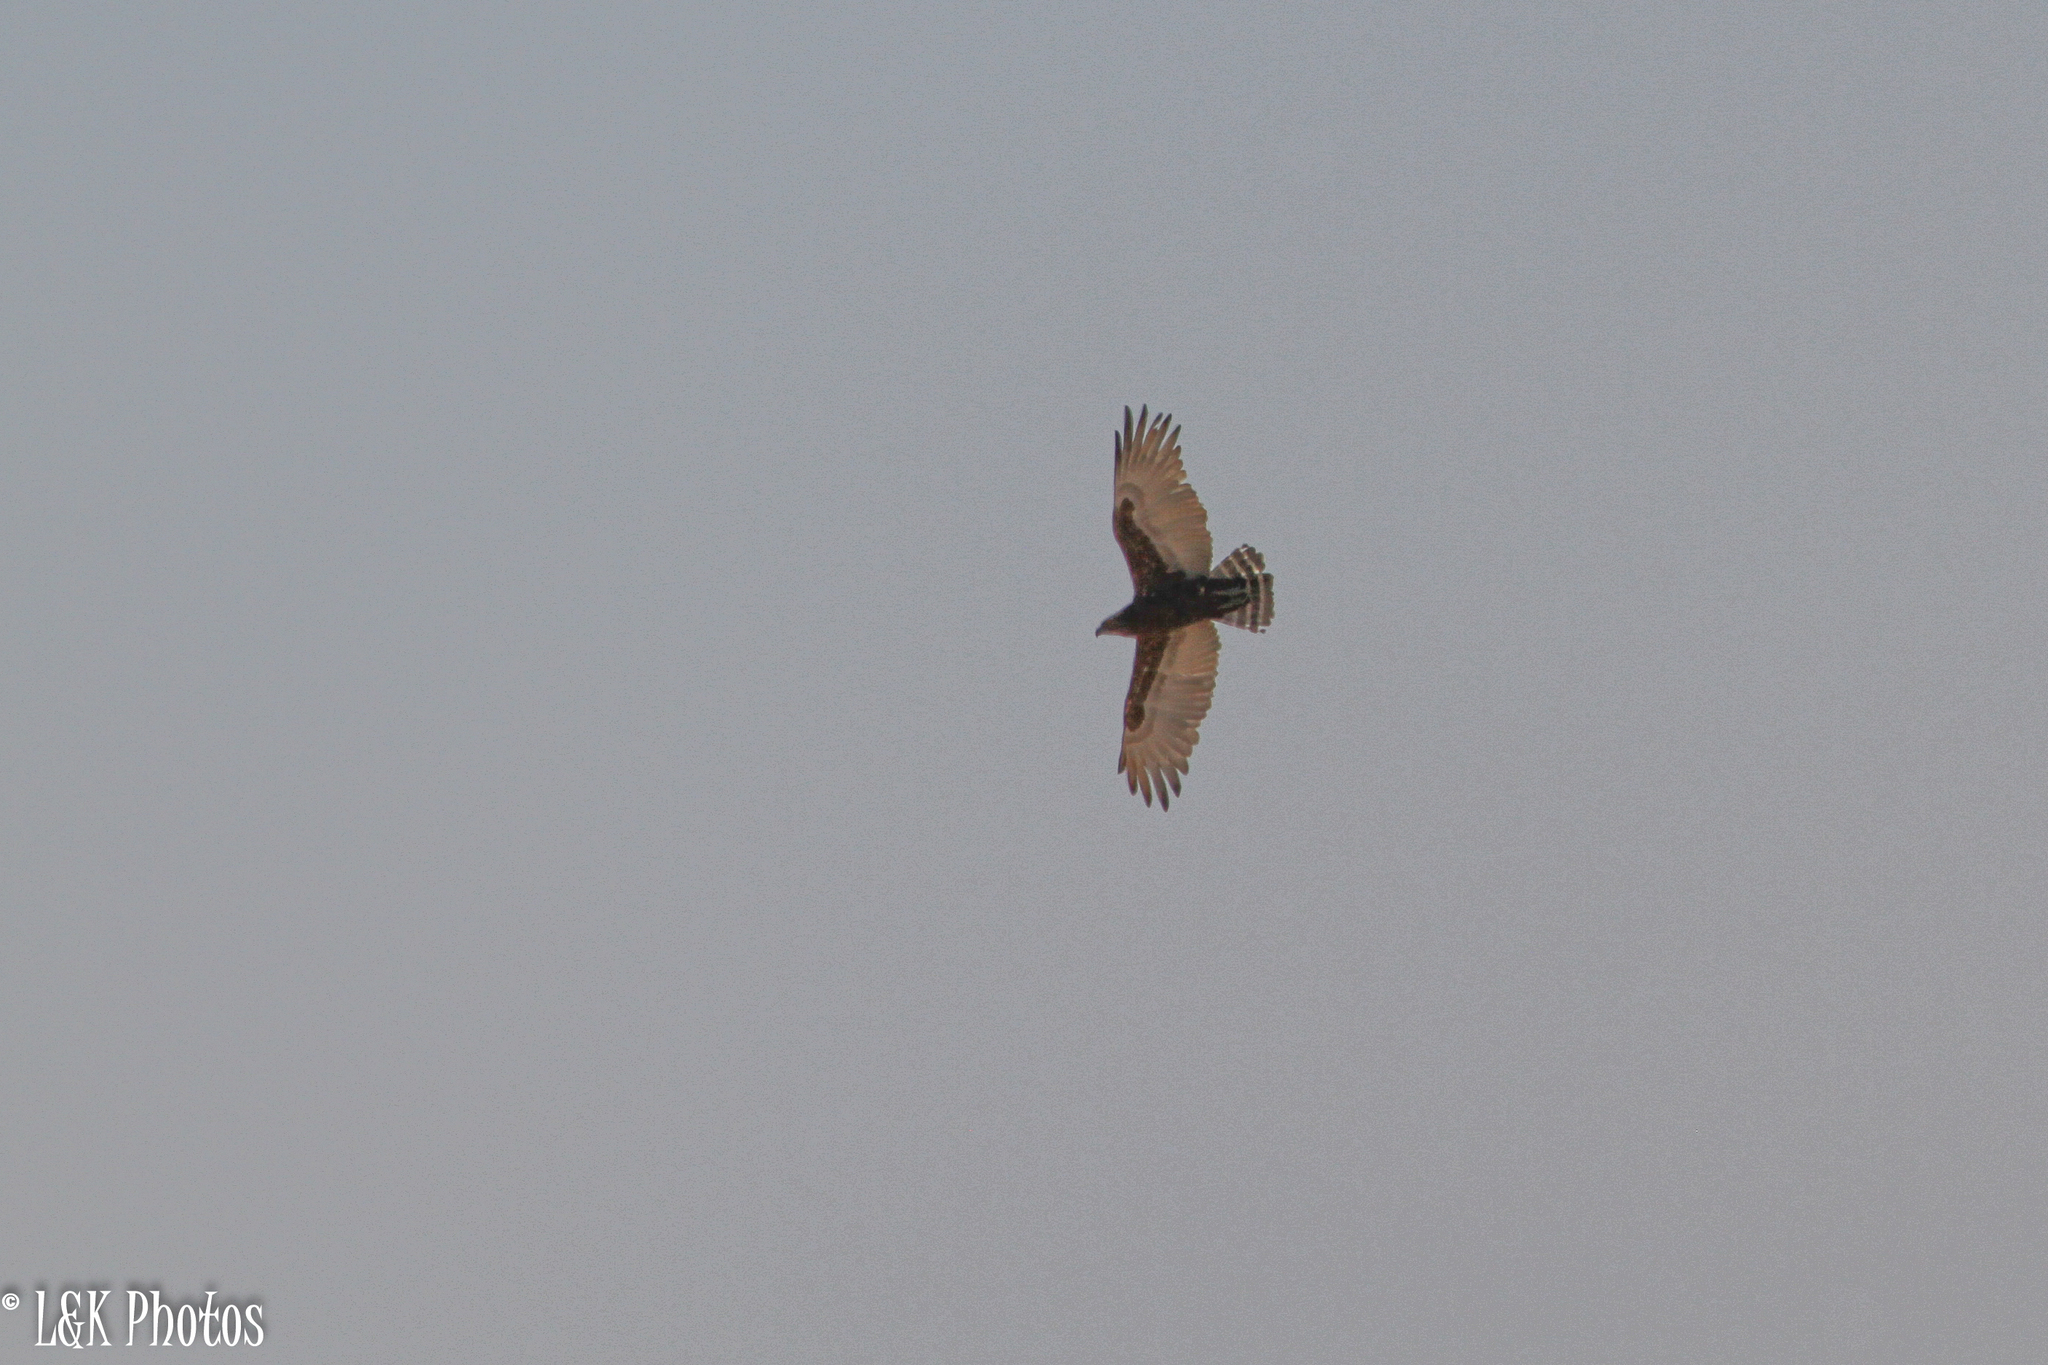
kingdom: Animalia
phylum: Chordata
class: Aves
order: Accipitriformes
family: Accipitridae
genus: Circaetus
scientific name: Circaetus cinereus
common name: Brown snake eagle
